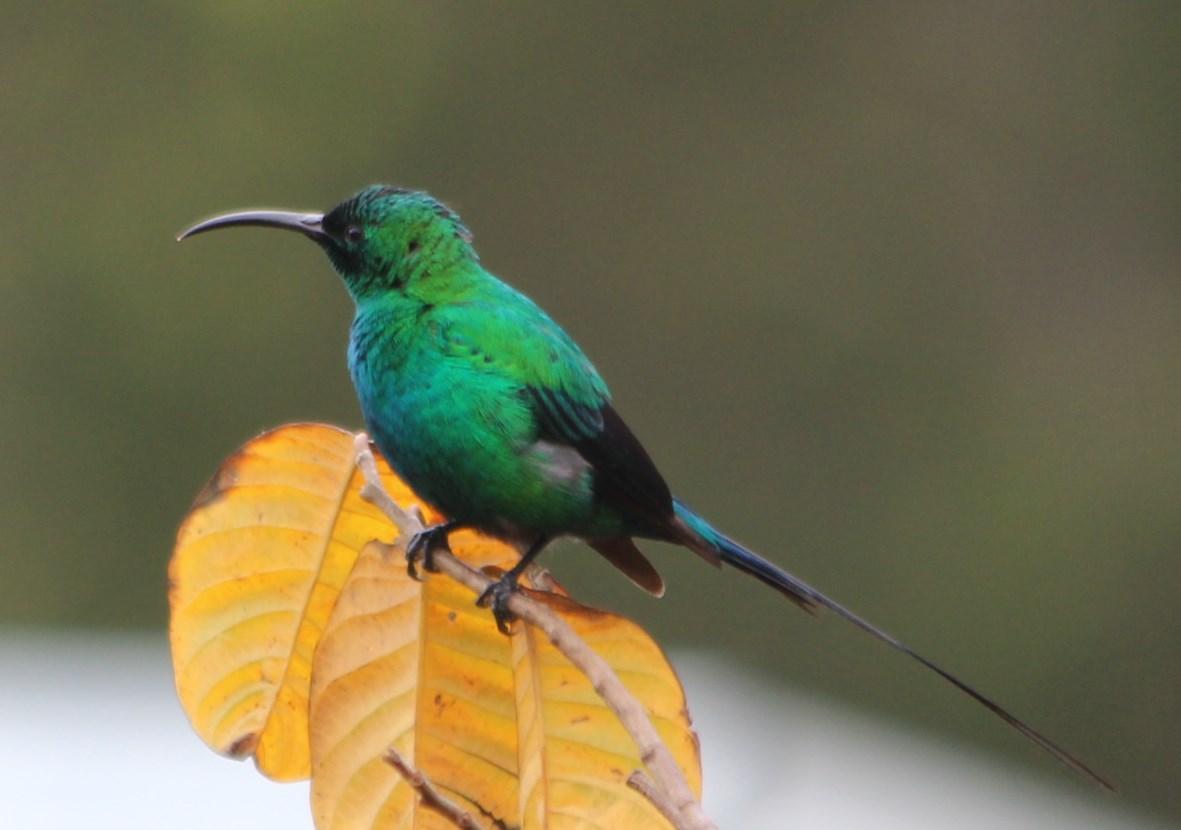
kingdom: Animalia
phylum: Chordata
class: Aves
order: Passeriformes
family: Nectariniidae
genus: Nectarinia
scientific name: Nectarinia famosa
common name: Malachite sunbird
